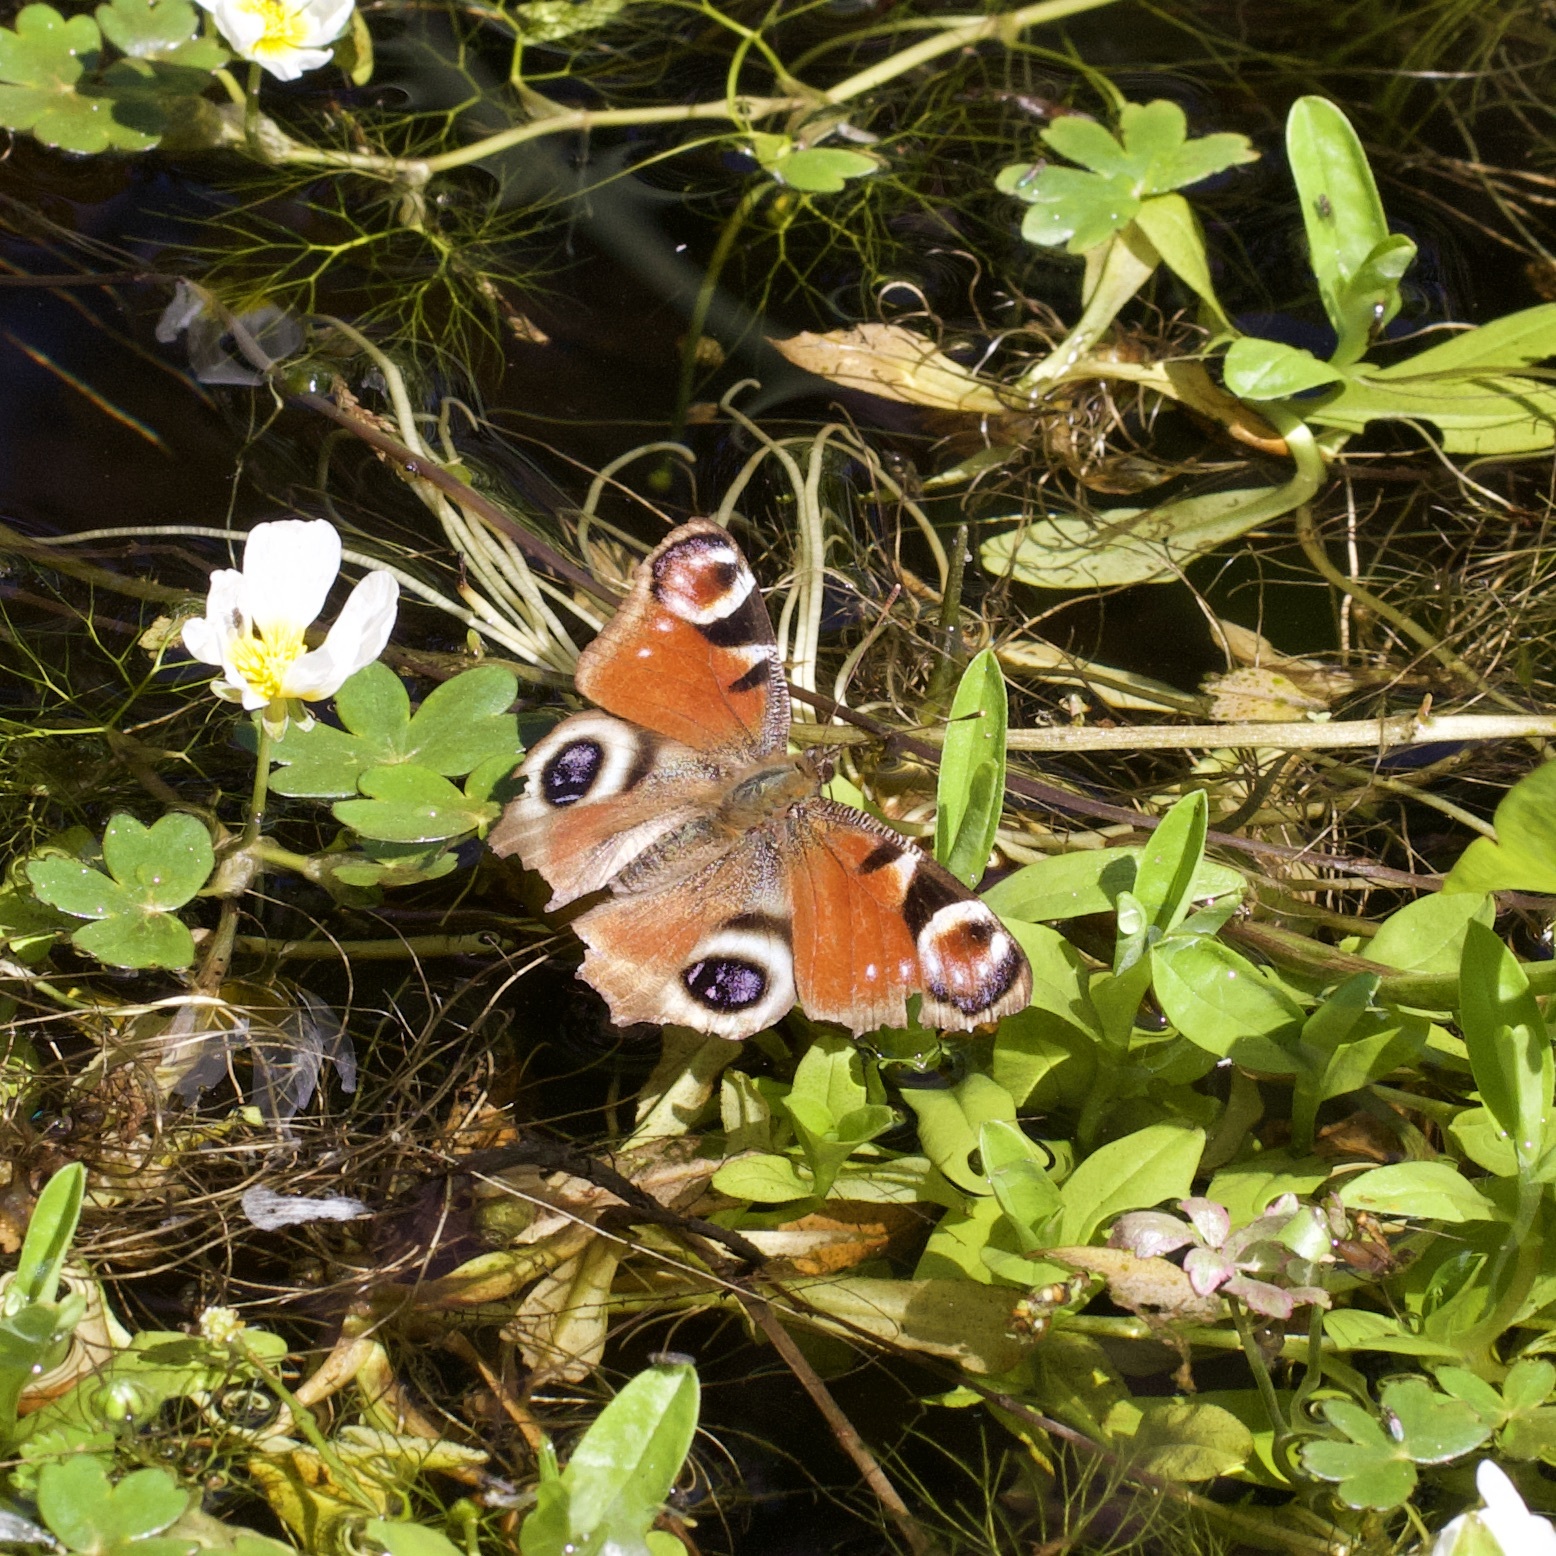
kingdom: Animalia
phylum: Arthropoda
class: Insecta
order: Lepidoptera
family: Nymphalidae
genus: Aglais
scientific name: Aglais io
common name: Peacock
